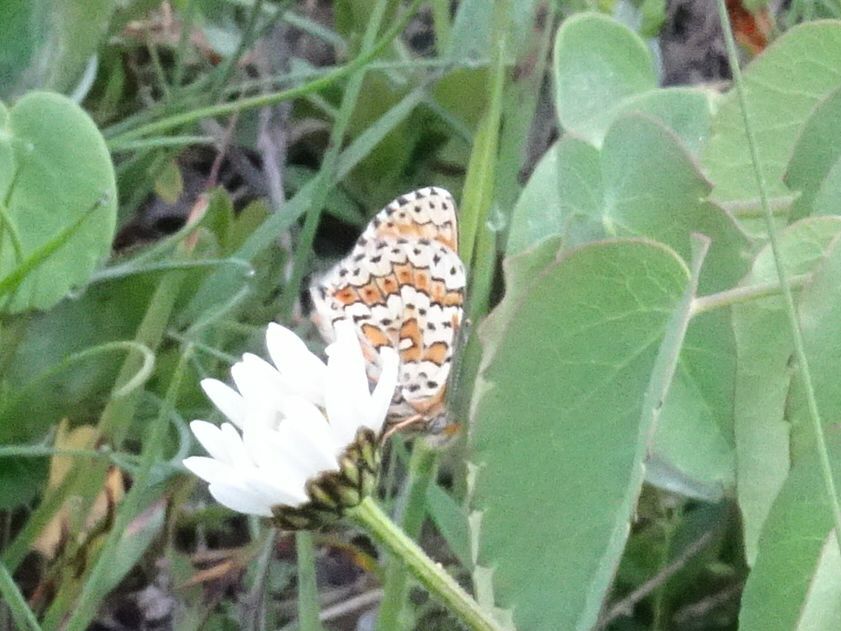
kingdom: Animalia
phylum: Arthropoda
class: Insecta
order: Lepidoptera
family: Nymphalidae
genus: Melitaea
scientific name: Melitaea cinxia
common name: Glanville fritillary
